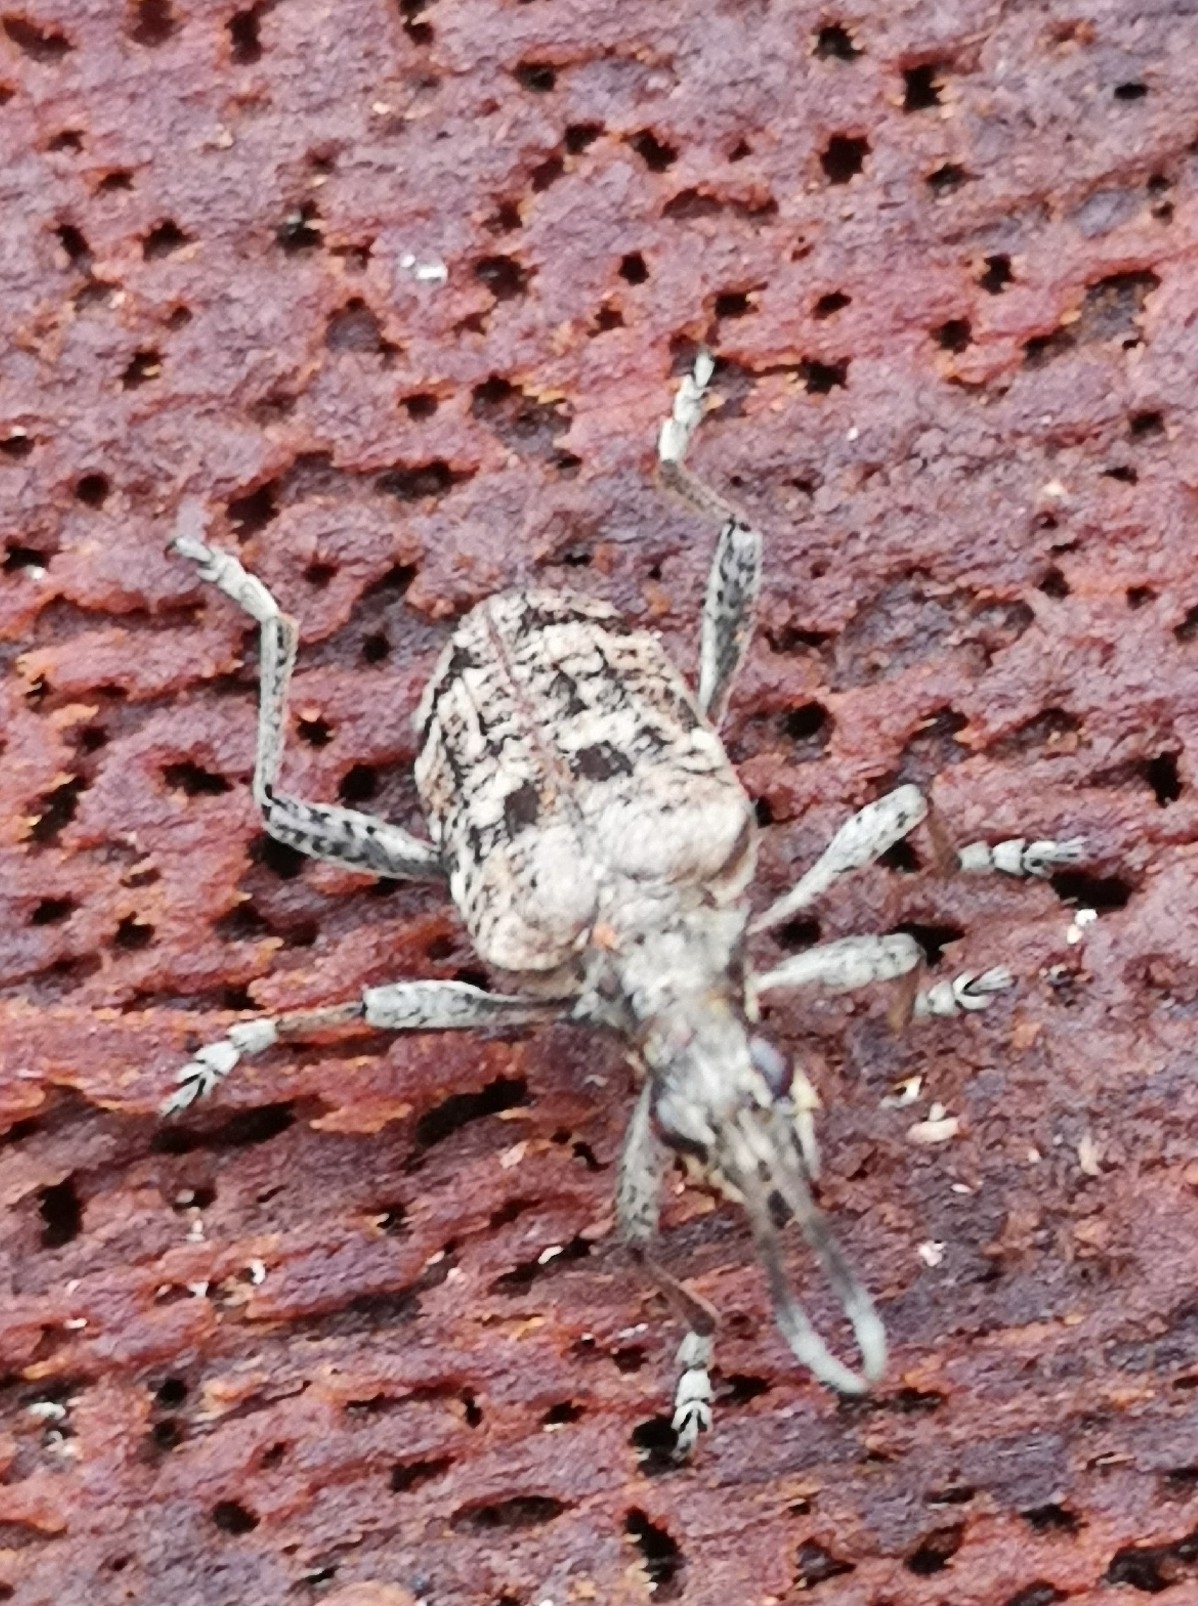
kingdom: Animalia
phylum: Arthropoda
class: Insecta
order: Coleoptera
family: Cerambycidae
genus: Rhagium
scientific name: Rhagium inquisitor
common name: Ribbed pine borer
